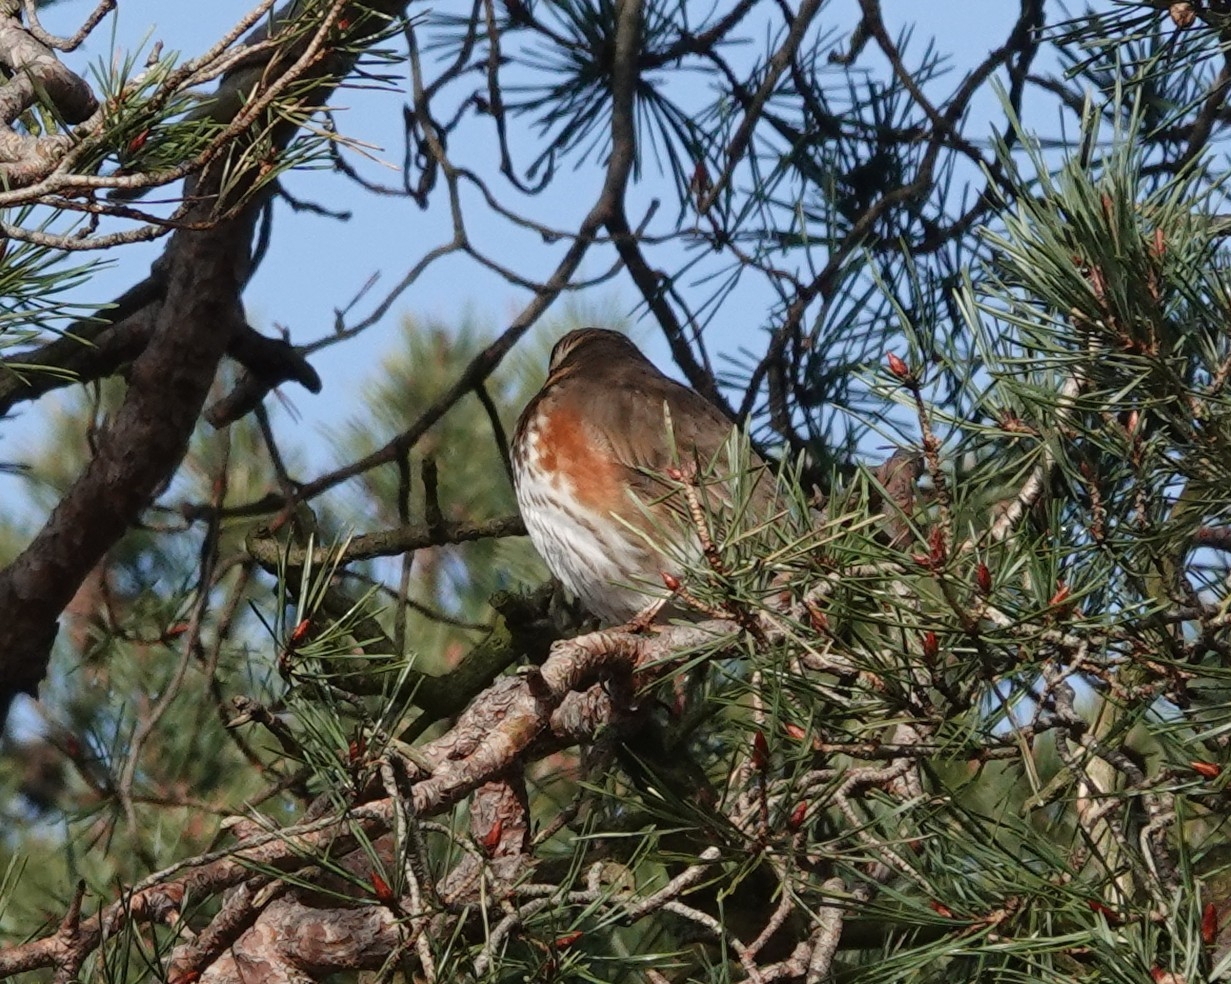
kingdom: Animalia
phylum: Chordata
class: Aves
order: Passeriformes
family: Turdidae
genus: Turdus
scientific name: Turdus iliacus
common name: Redwing
